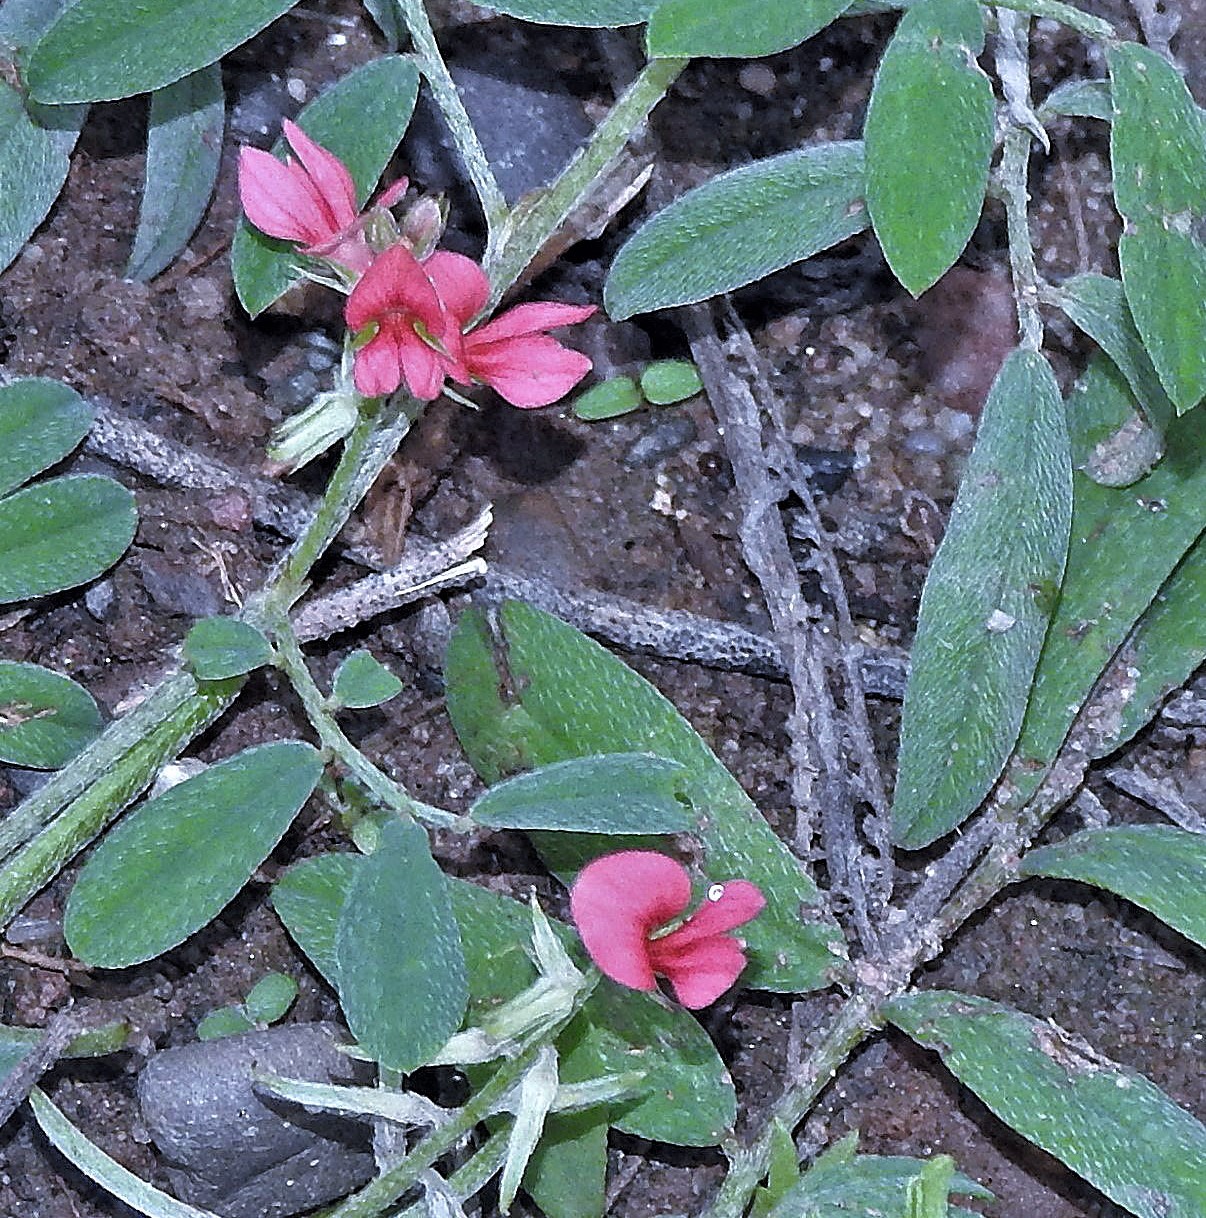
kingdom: Plantae
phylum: Tracheophyta
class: Magnoliopsida
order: Fabales
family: Fabaceae
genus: Indigofera
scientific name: Indigofera asperifolia
